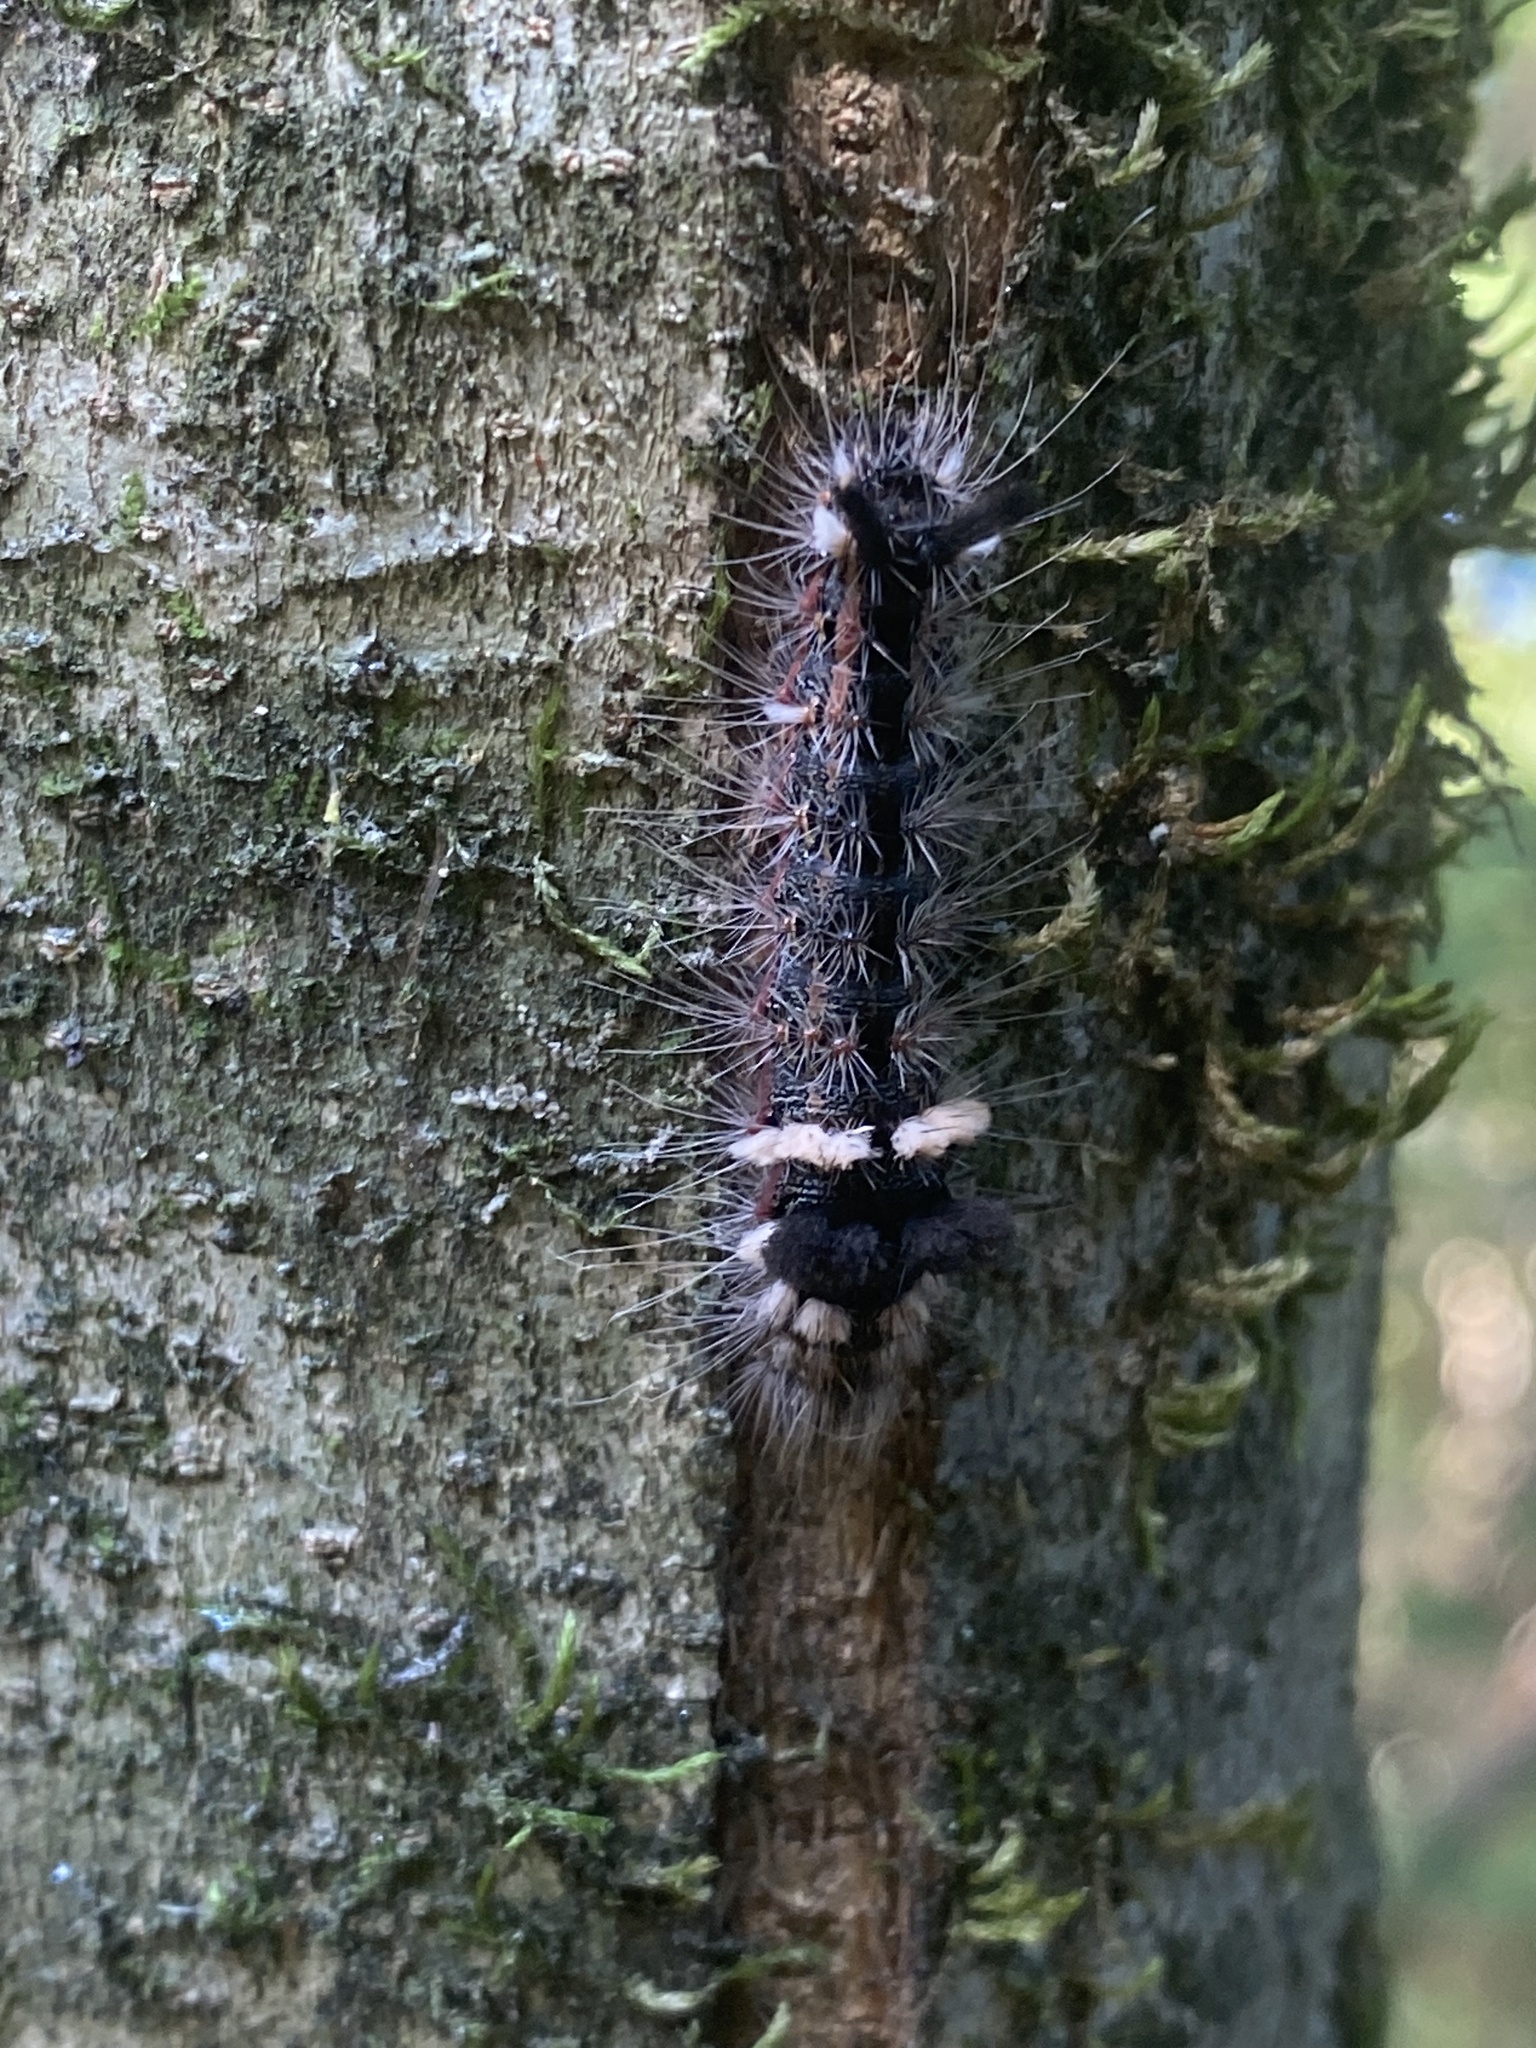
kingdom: Animalia
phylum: Arthropoda
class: Insecta
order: Lepidoptera
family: Noctuidae
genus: Acronicta
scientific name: Acronicta impleta
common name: Powdered dagger
